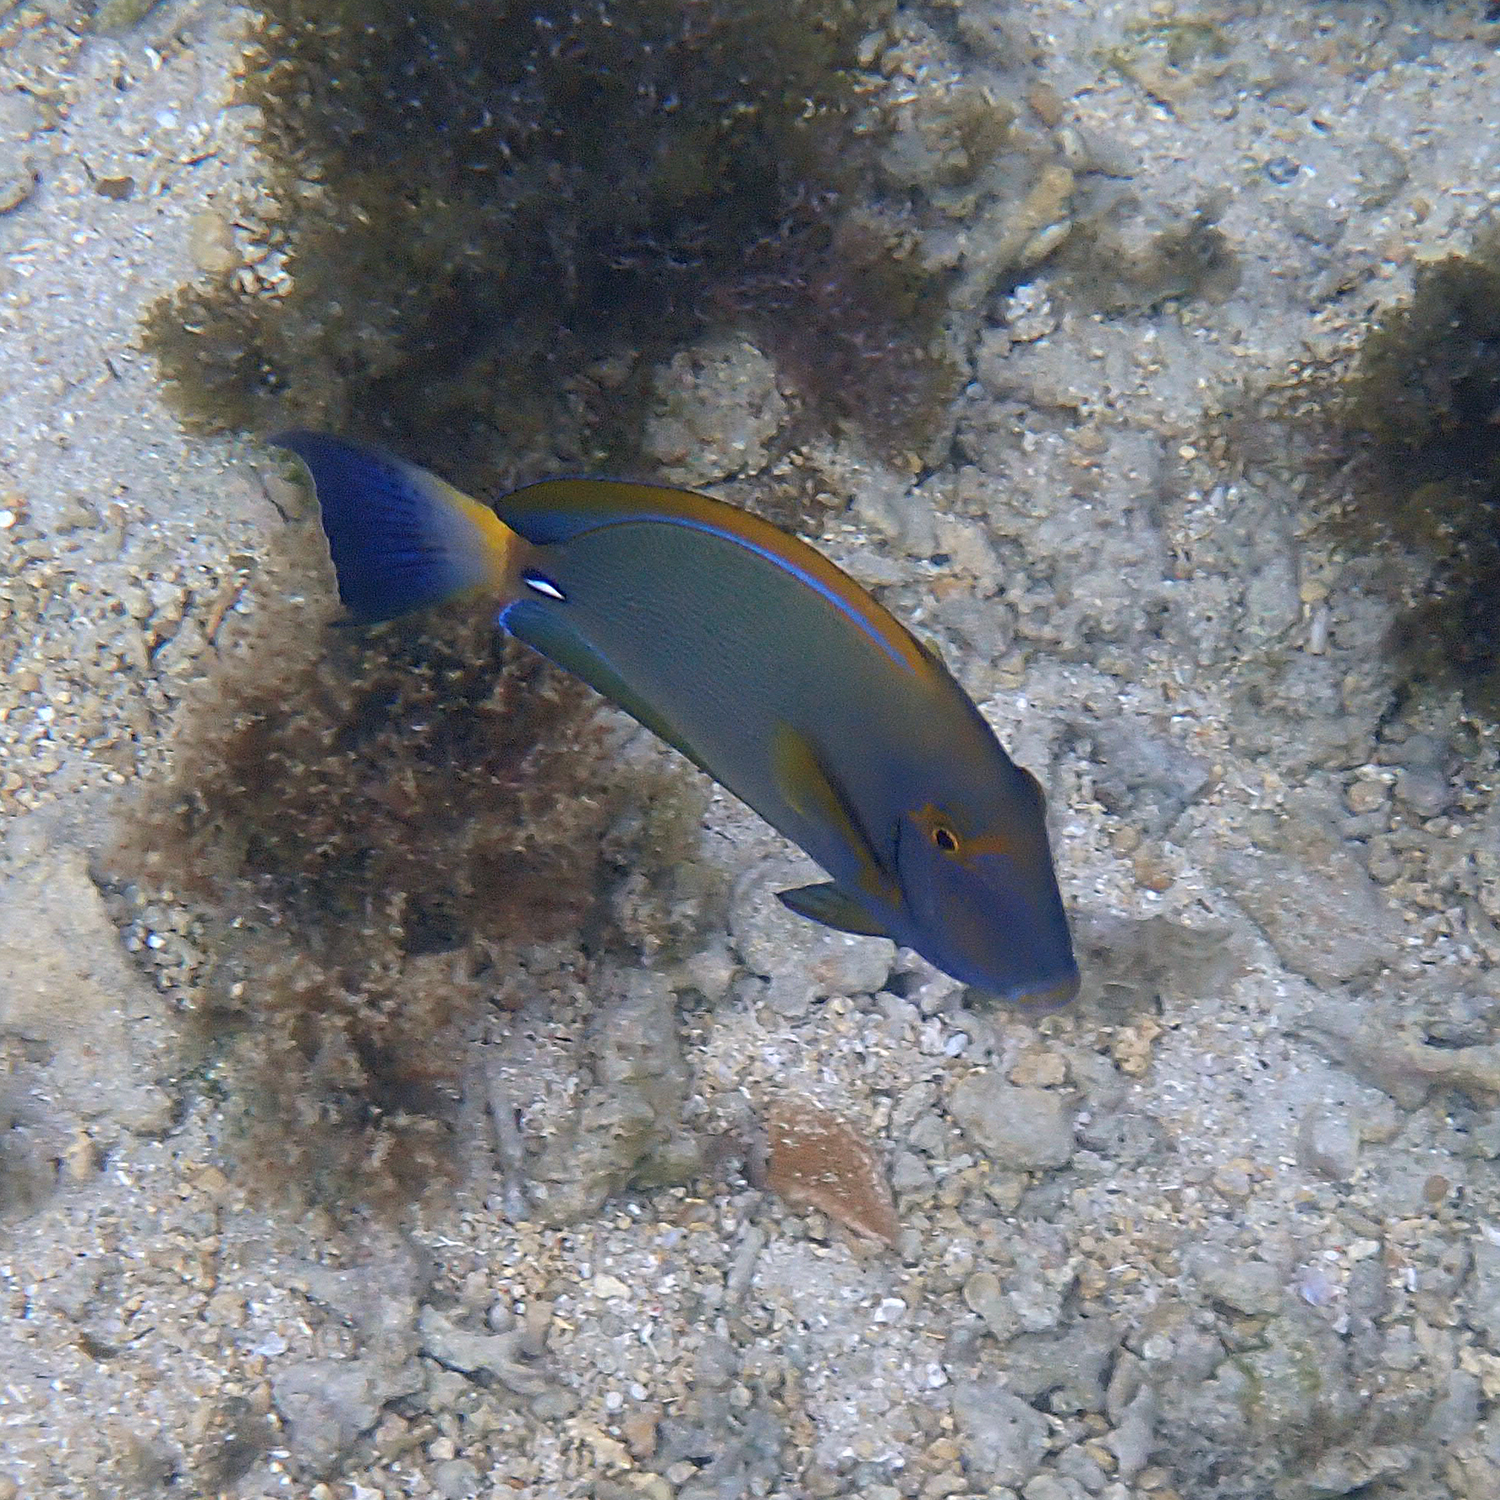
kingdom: Animalia
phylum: Chordata
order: Perciformes
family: Acanthuridae
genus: Acanthurus
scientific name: Acanthurus dussumieri
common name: Dussumier's surgeonfish
